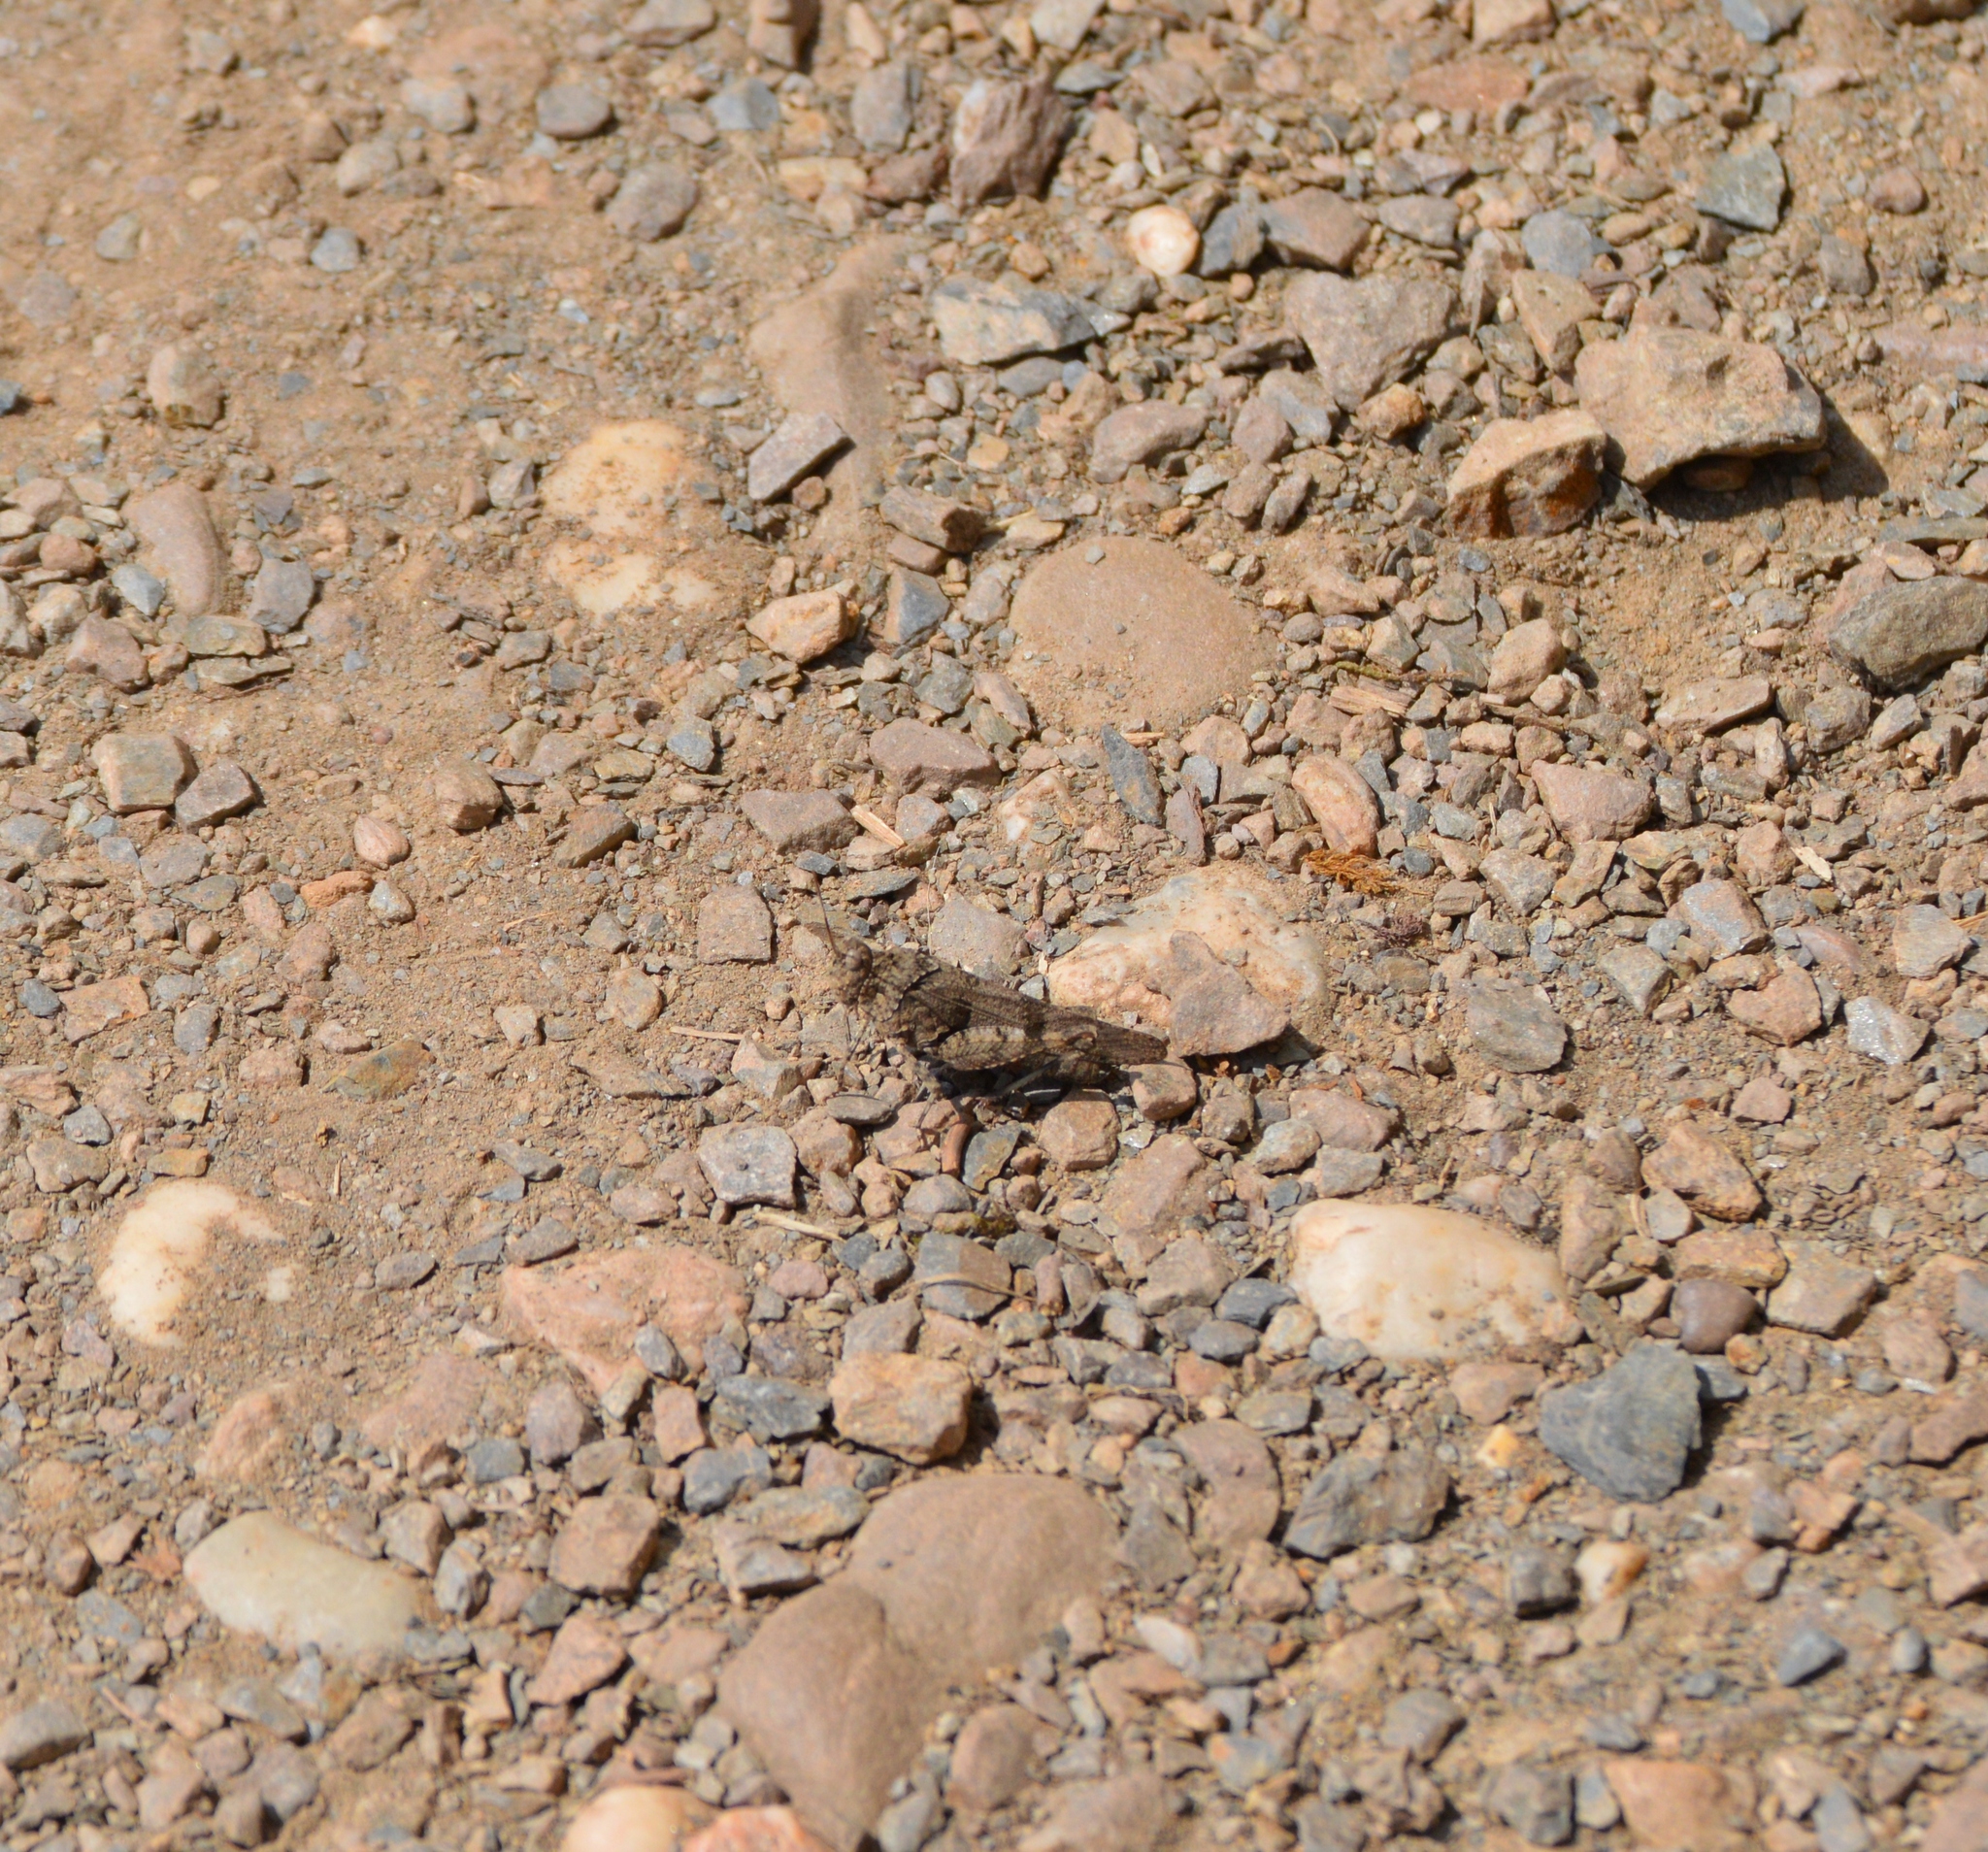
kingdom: Animalia
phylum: Arthropoda
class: Insecta
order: Orthoptera
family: Acrididae
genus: Oedipoda
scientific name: Oedipoda caerulescens
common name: Blue-winged grasshopper
